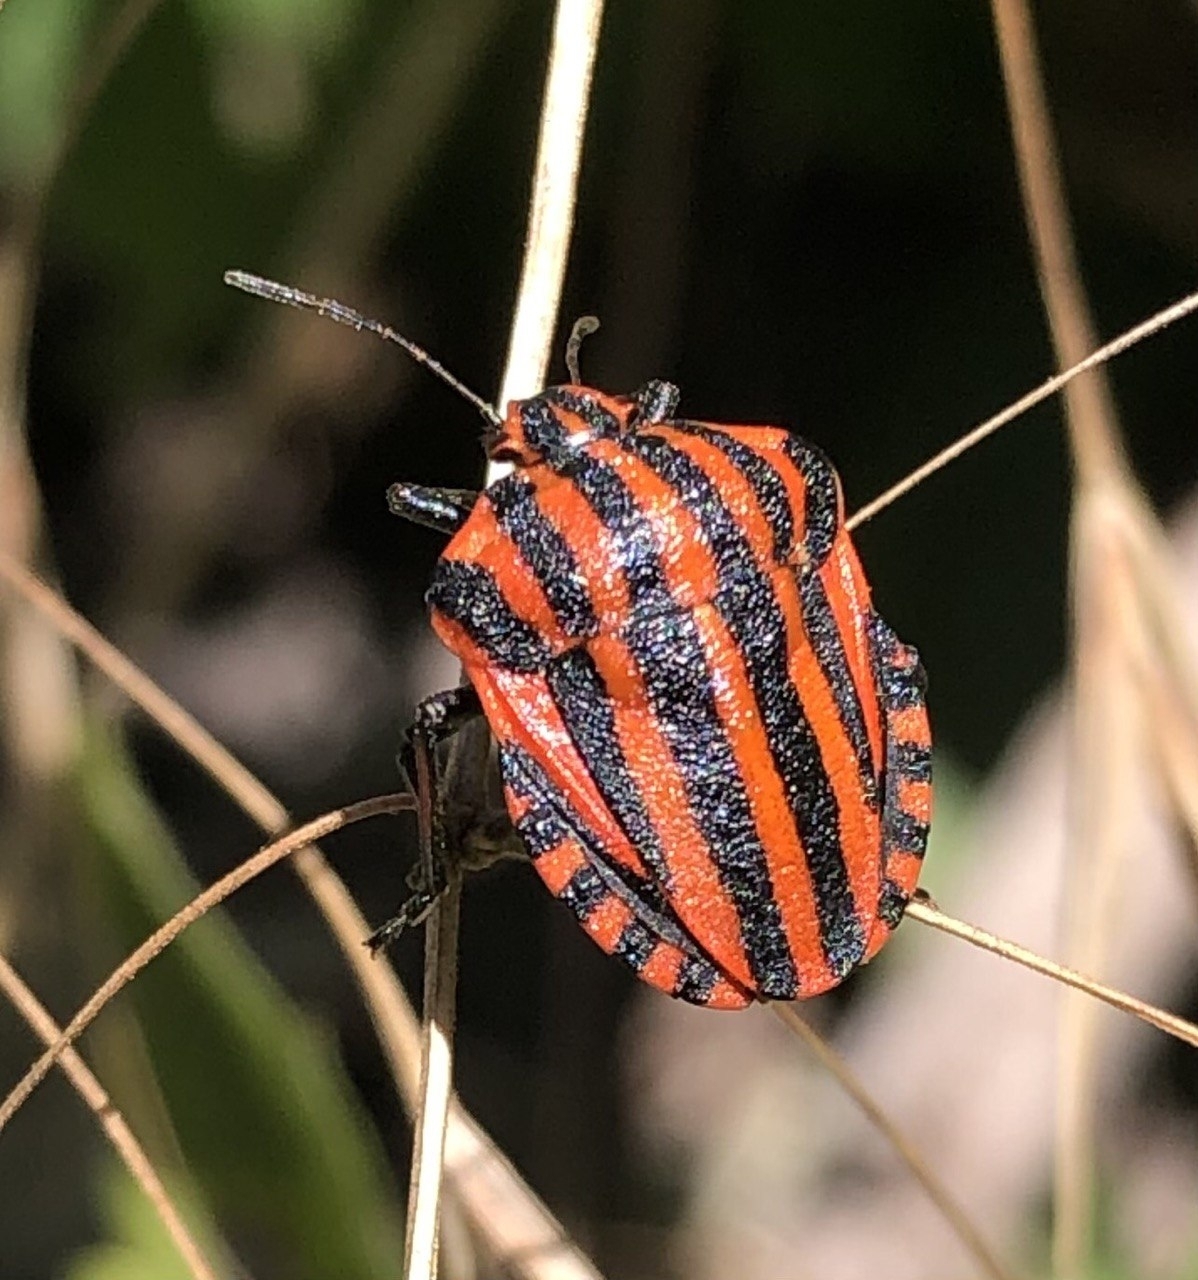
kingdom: Animalia
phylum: Arthropoda
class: Insecta
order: Hemiptera
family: Pentatomidae
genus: Graphosoma
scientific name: Graphosoma italicum
